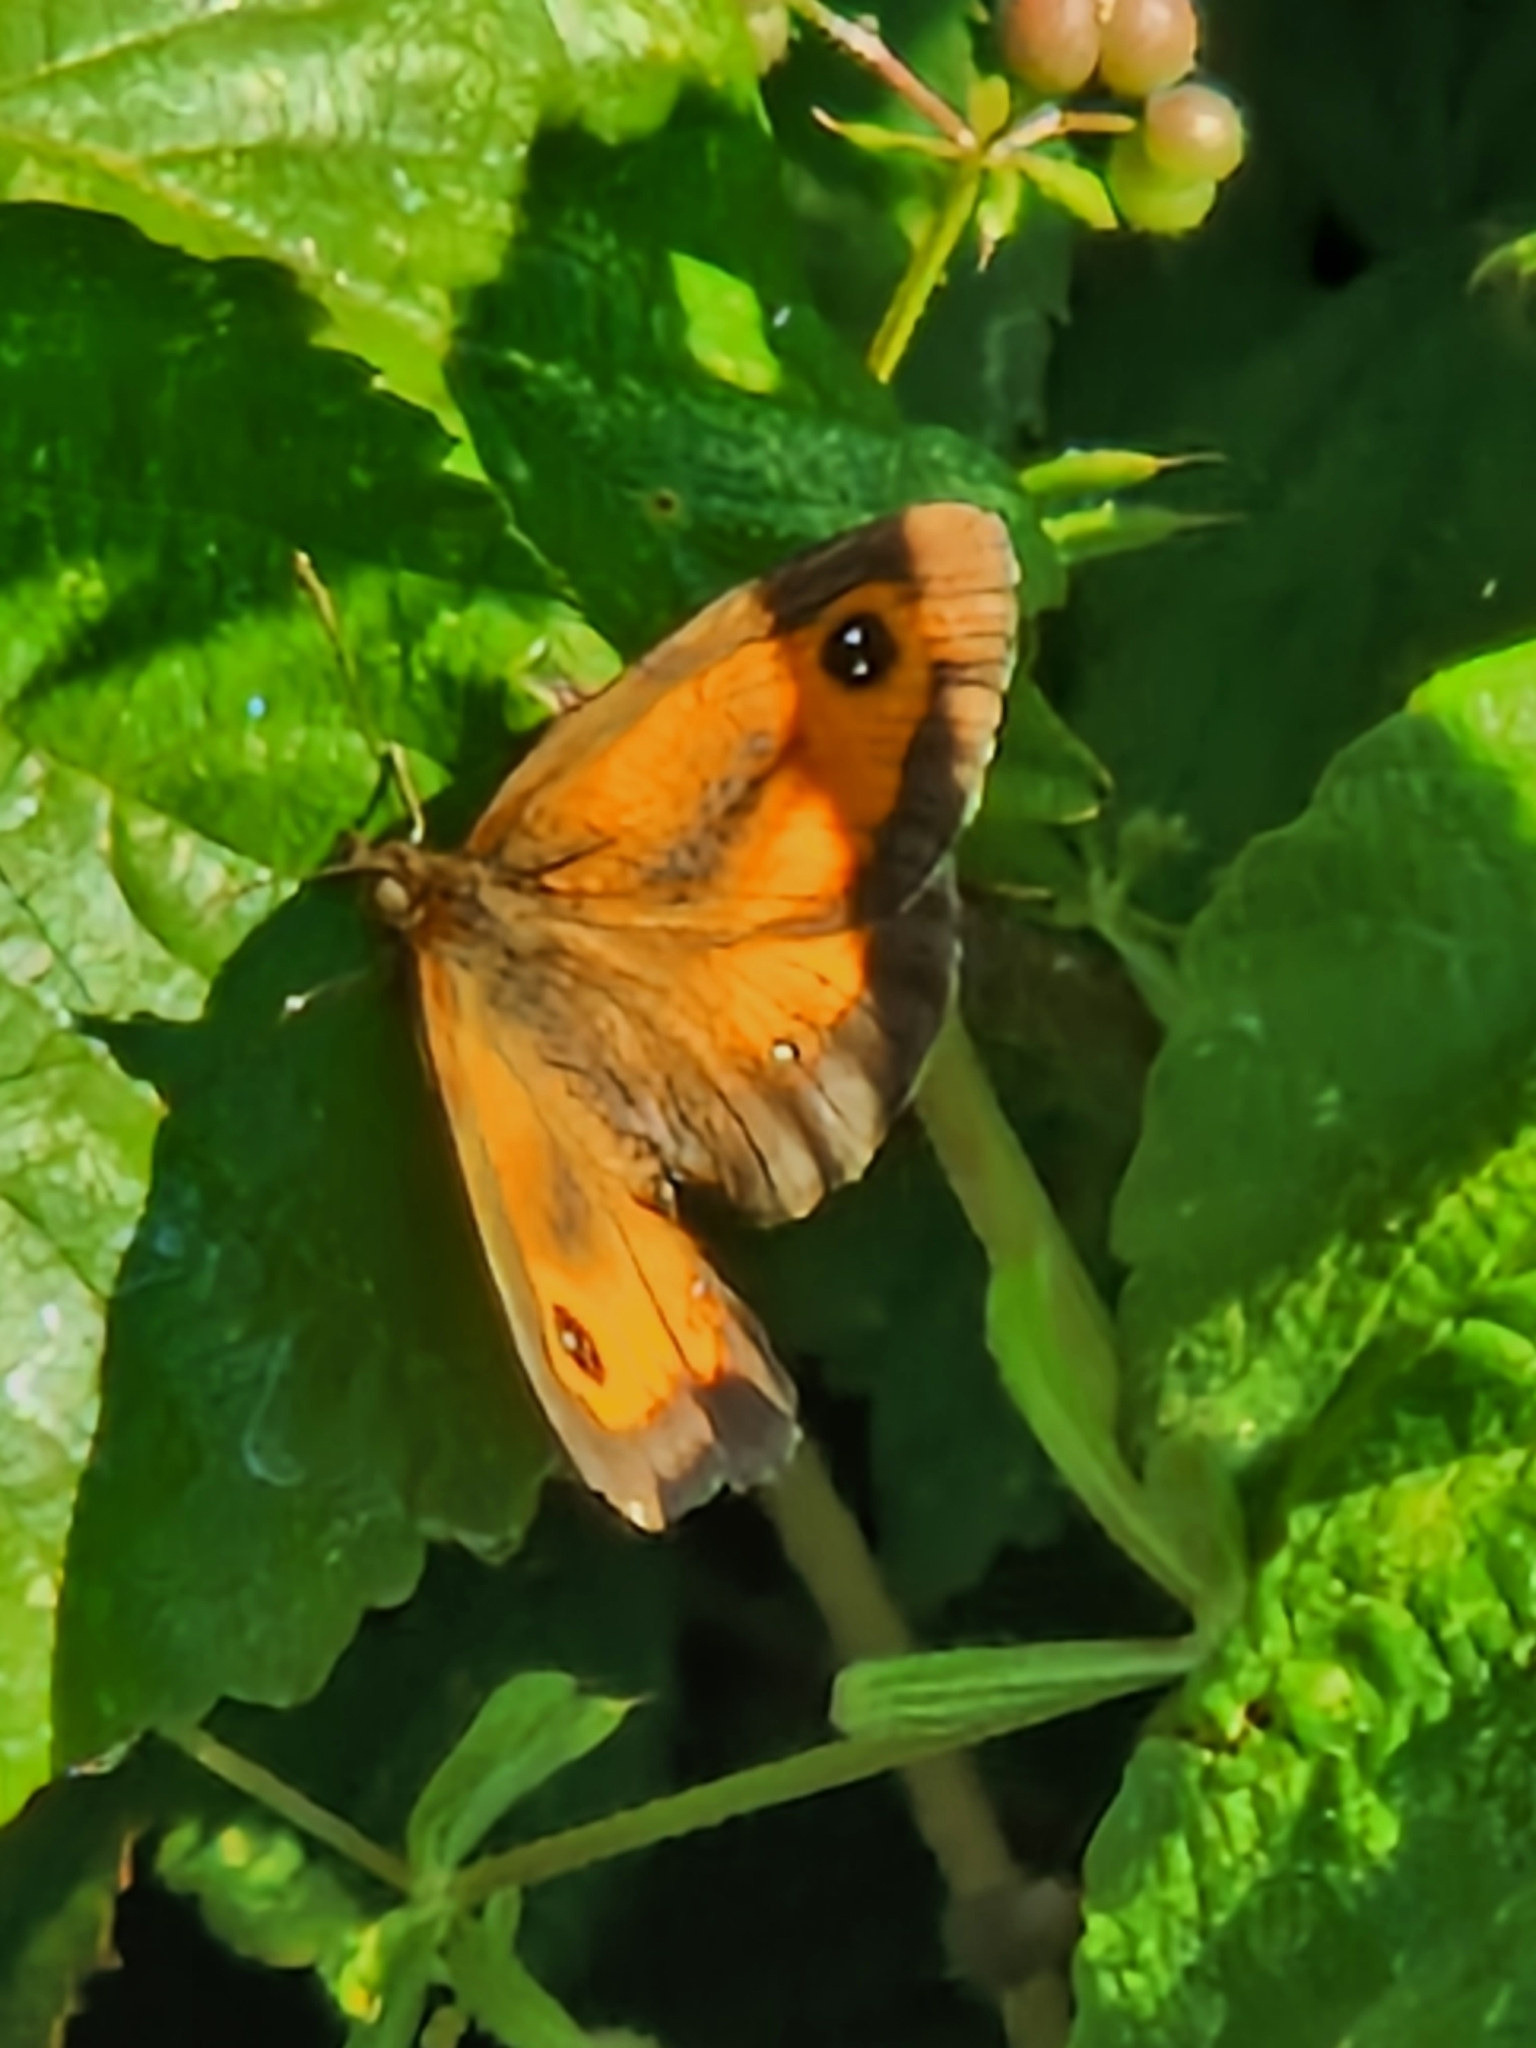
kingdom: Animalia
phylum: Arthropoda
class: Insecta
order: Lepidoptera
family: Nymphalidae
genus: Pyronia
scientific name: Pyronia tithonus
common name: Gatekeeper
